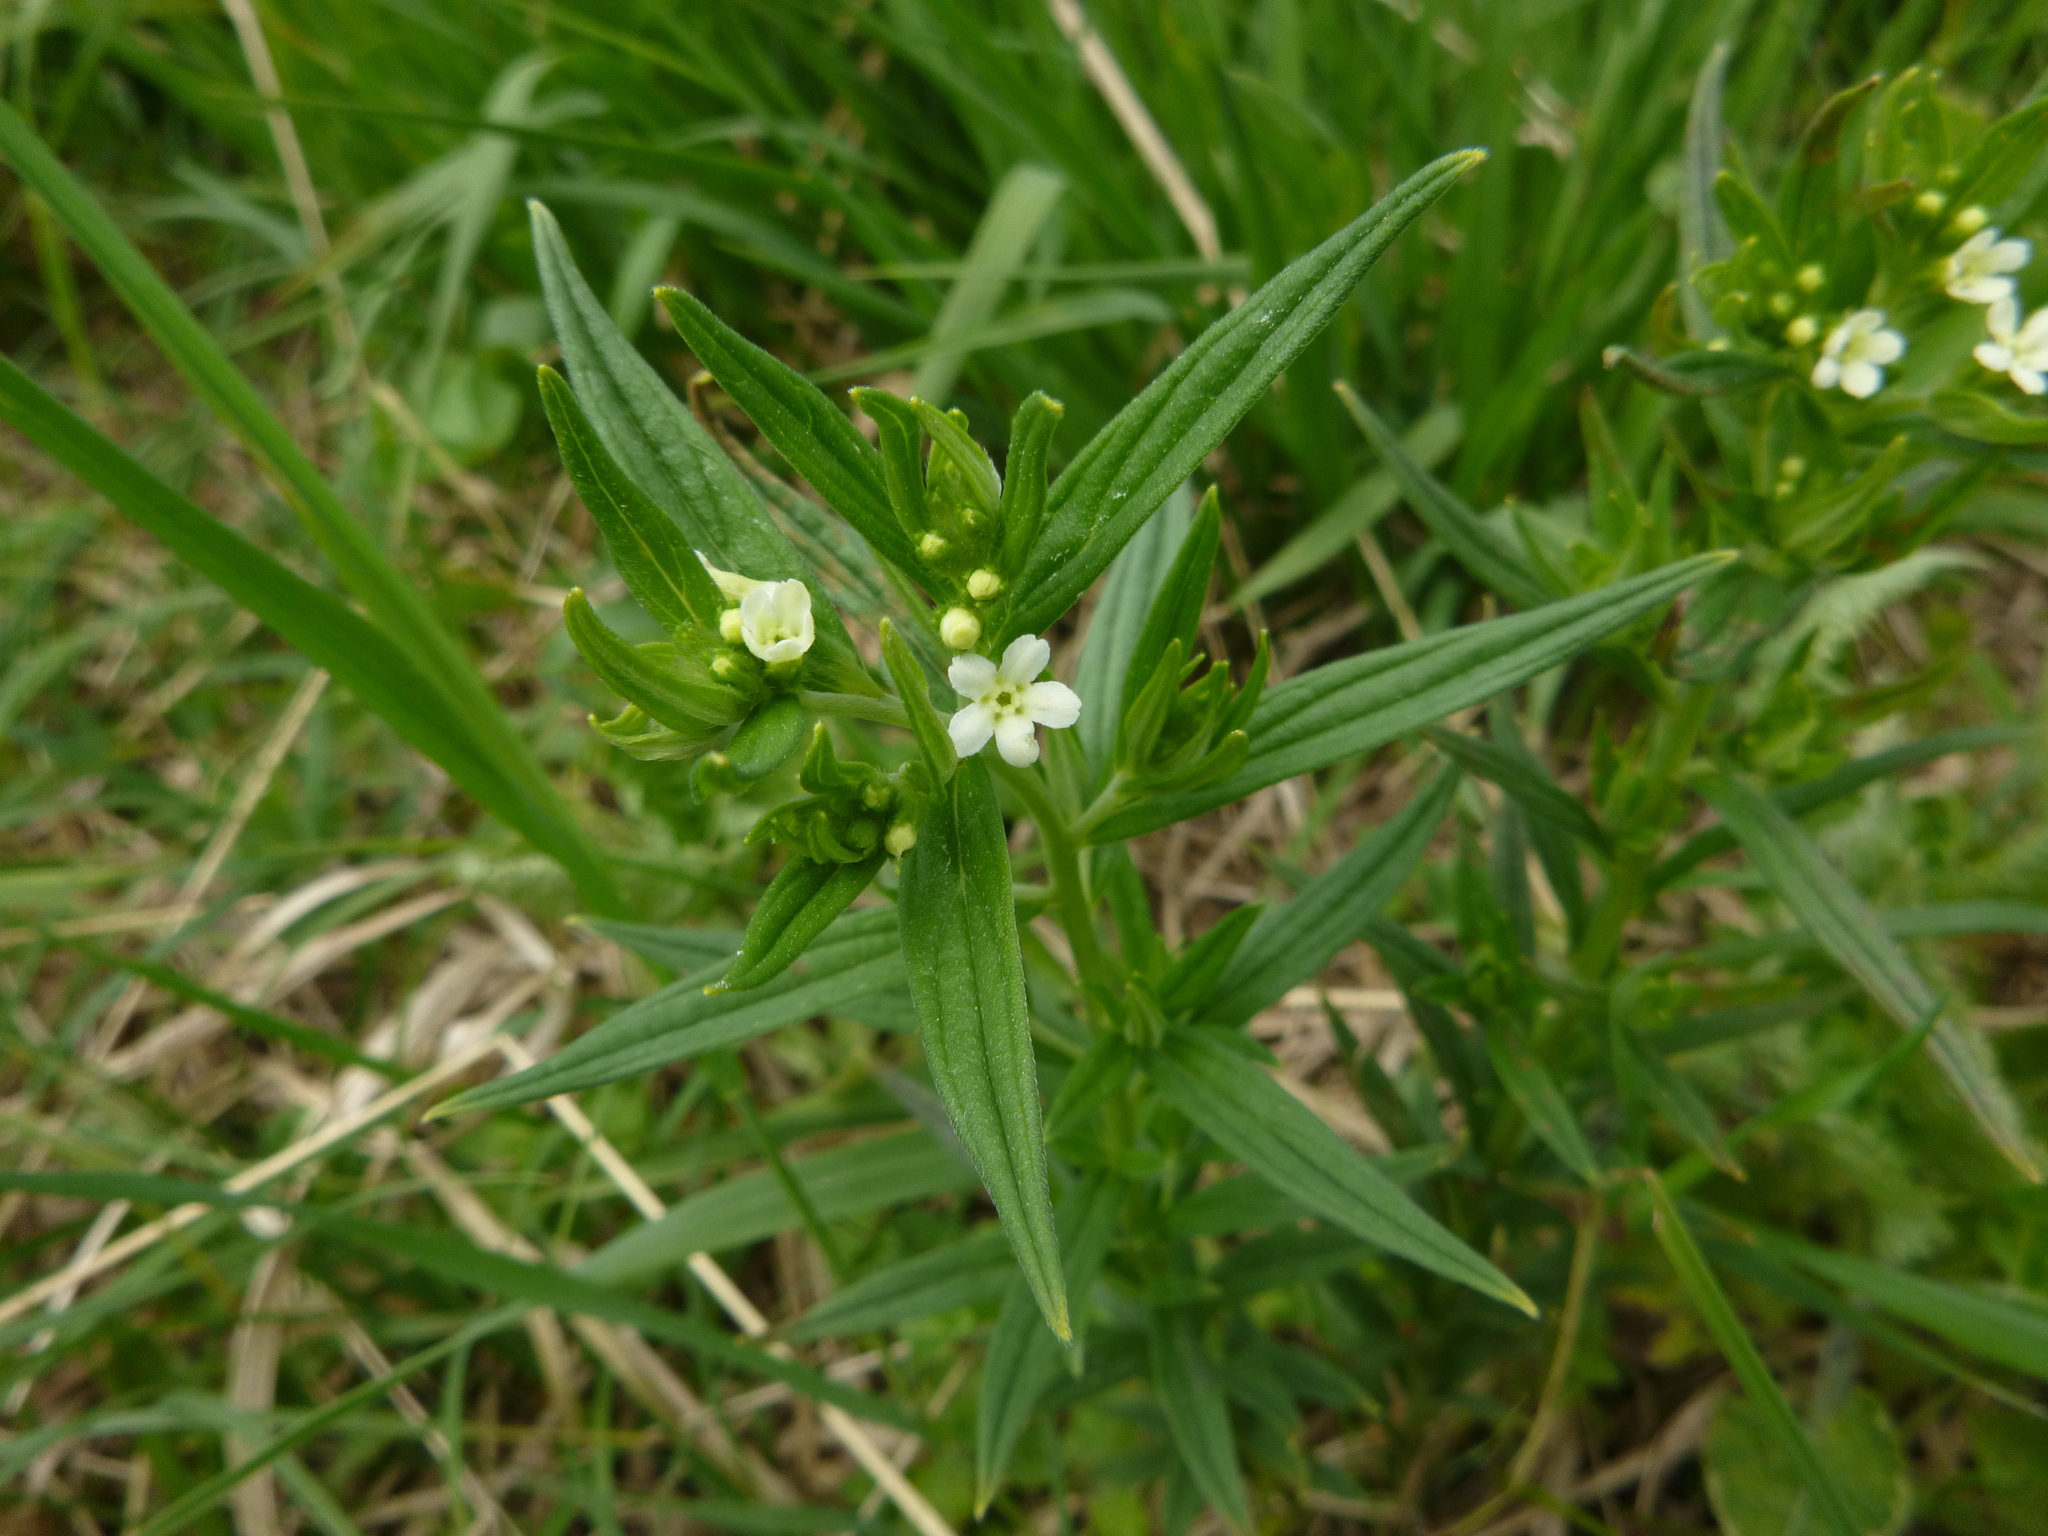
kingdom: Plantae
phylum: Tracheophyta
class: Magnoliopsida
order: Boraginales
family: Boraginaceae
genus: Lithospermum
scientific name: Lithospermum officinale
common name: Common gromwell
